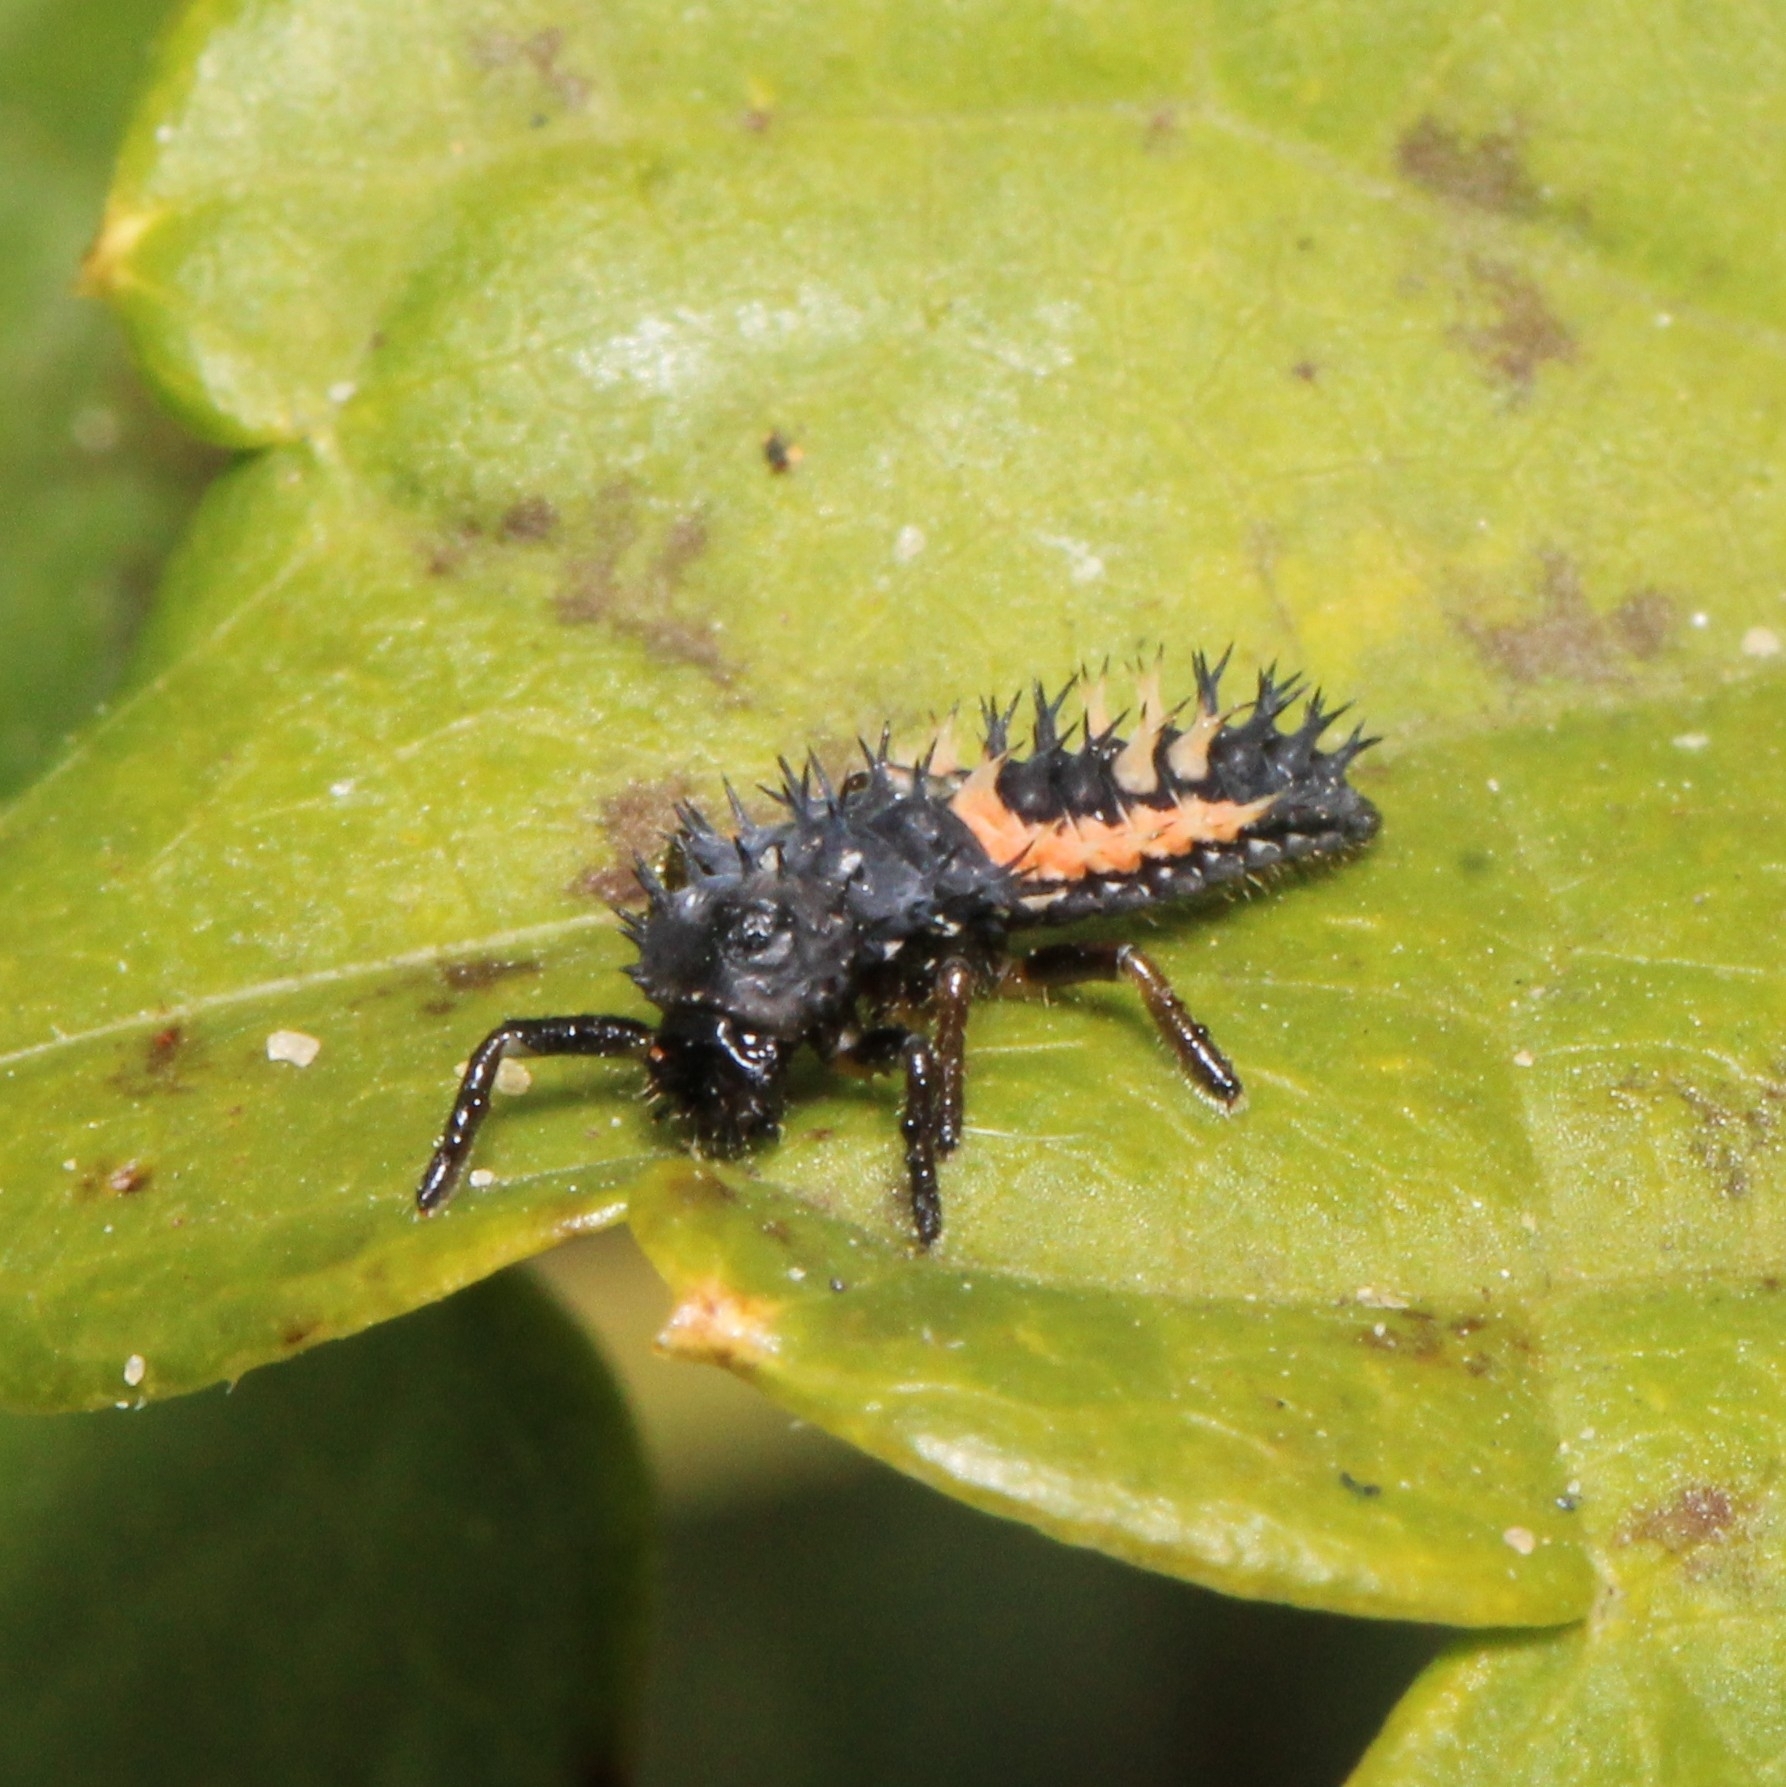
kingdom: Animalia
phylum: Arthropoda
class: Insecta
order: Coleoptera
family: Coccinellidae
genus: Harmonia
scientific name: Harmonia axyridis
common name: Harlequin ladybird
